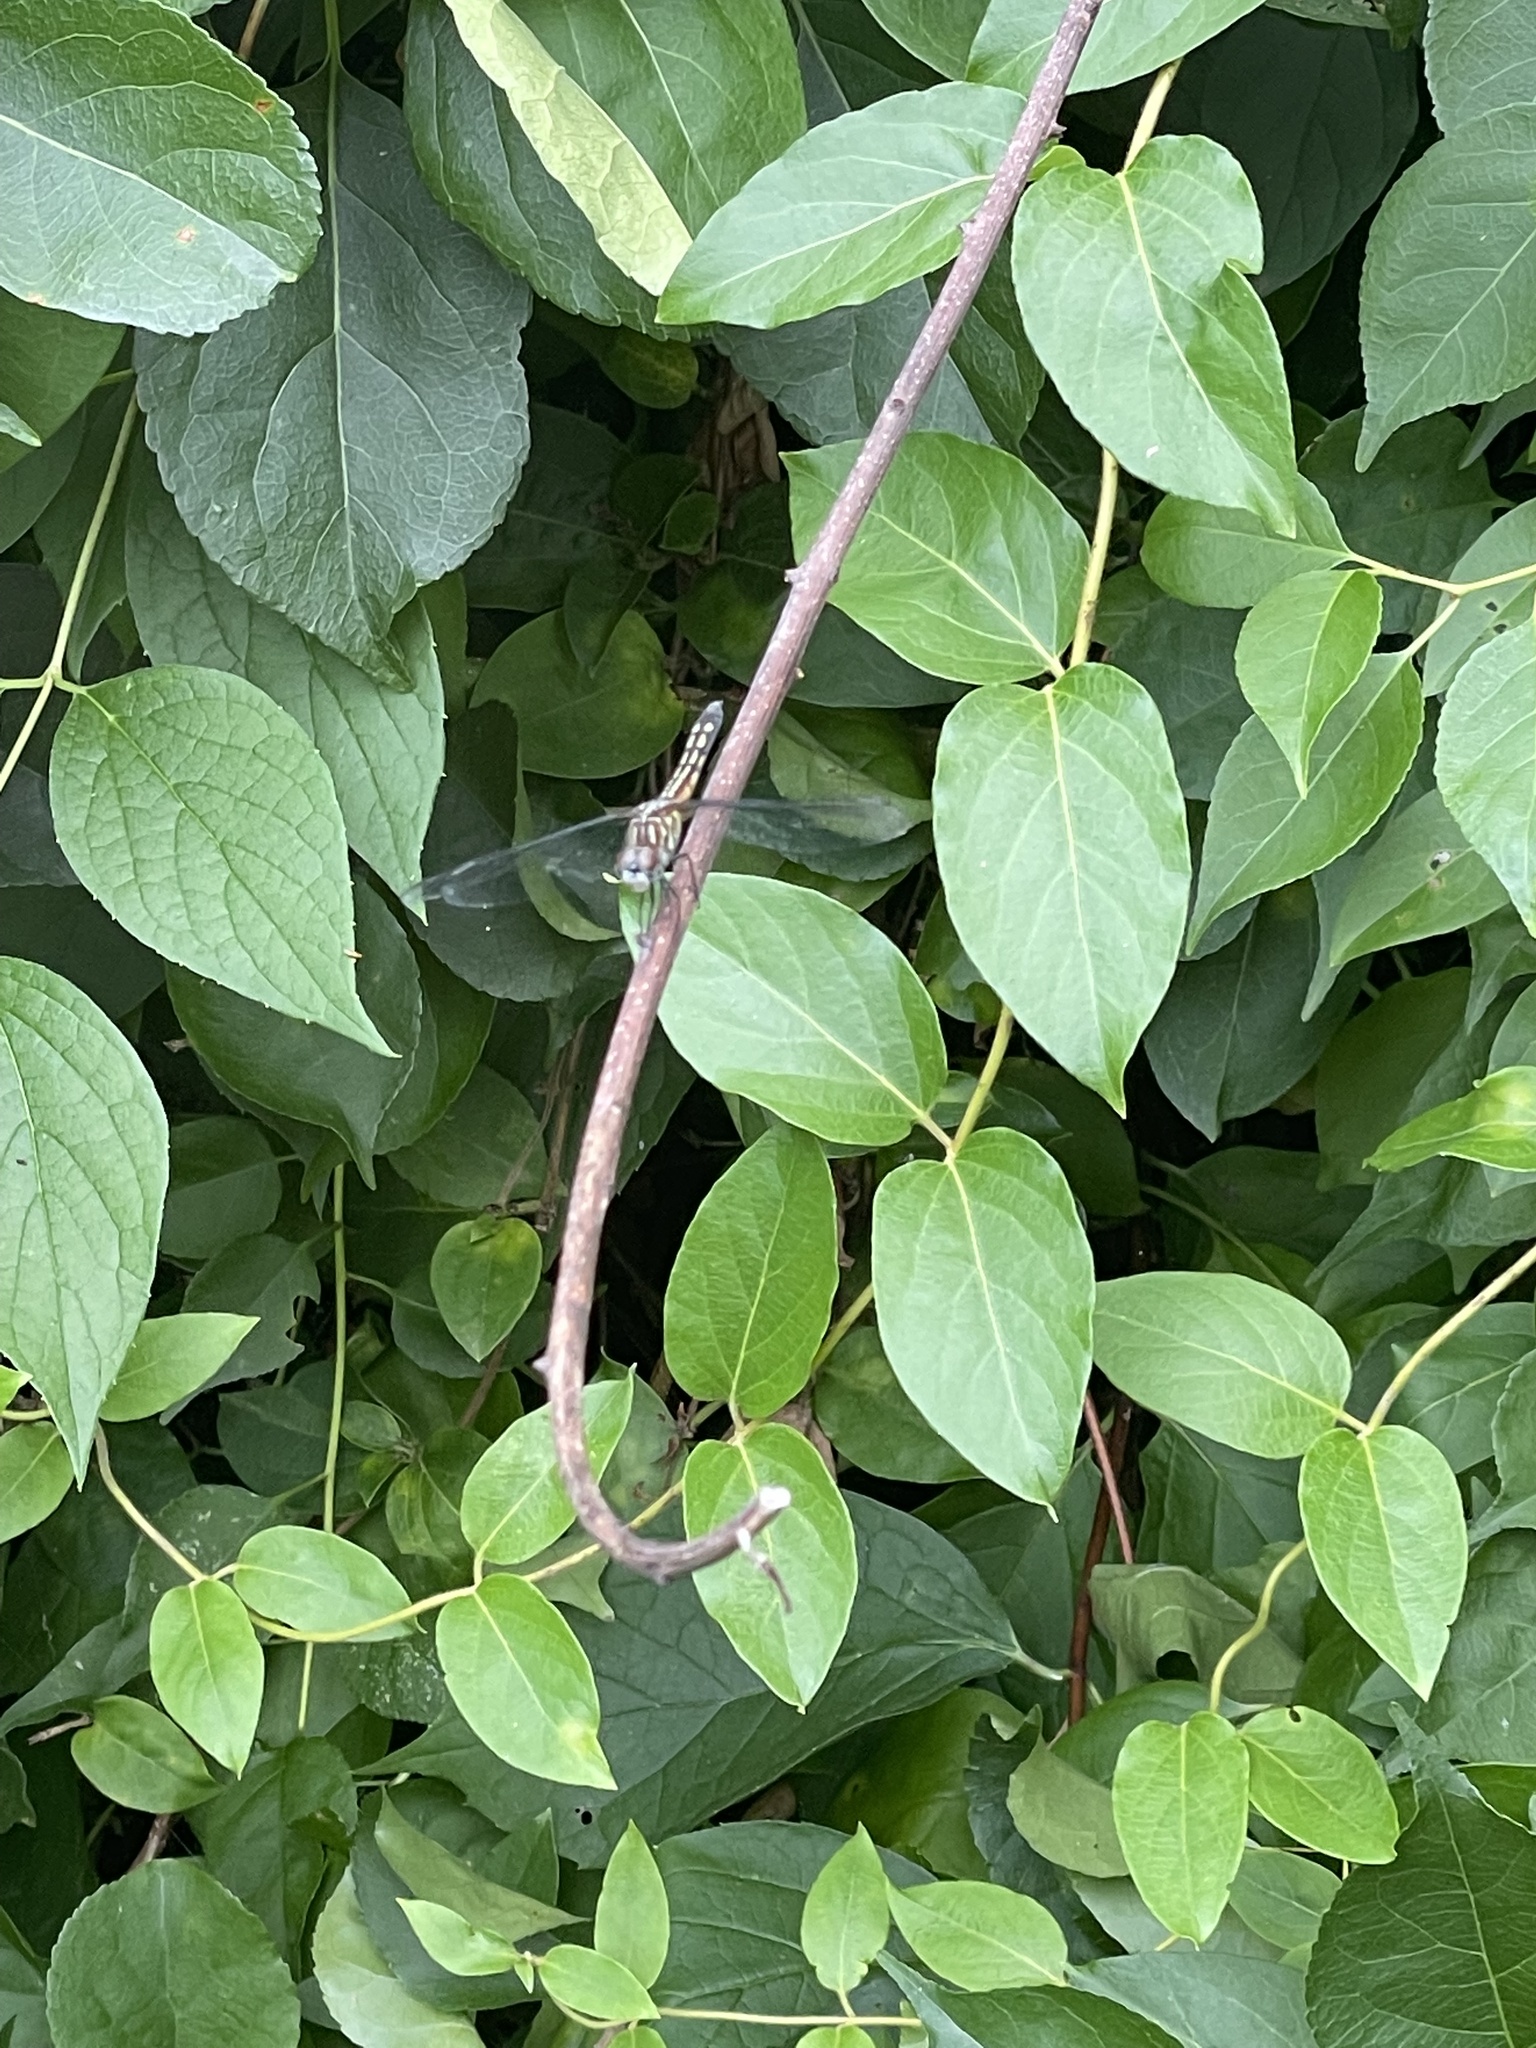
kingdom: Animalia
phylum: Arthropoda
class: Insecta
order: Odonata
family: Libellulidae
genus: Pachydiplax
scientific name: Pachydiplax longipennis
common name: Blue dasher
